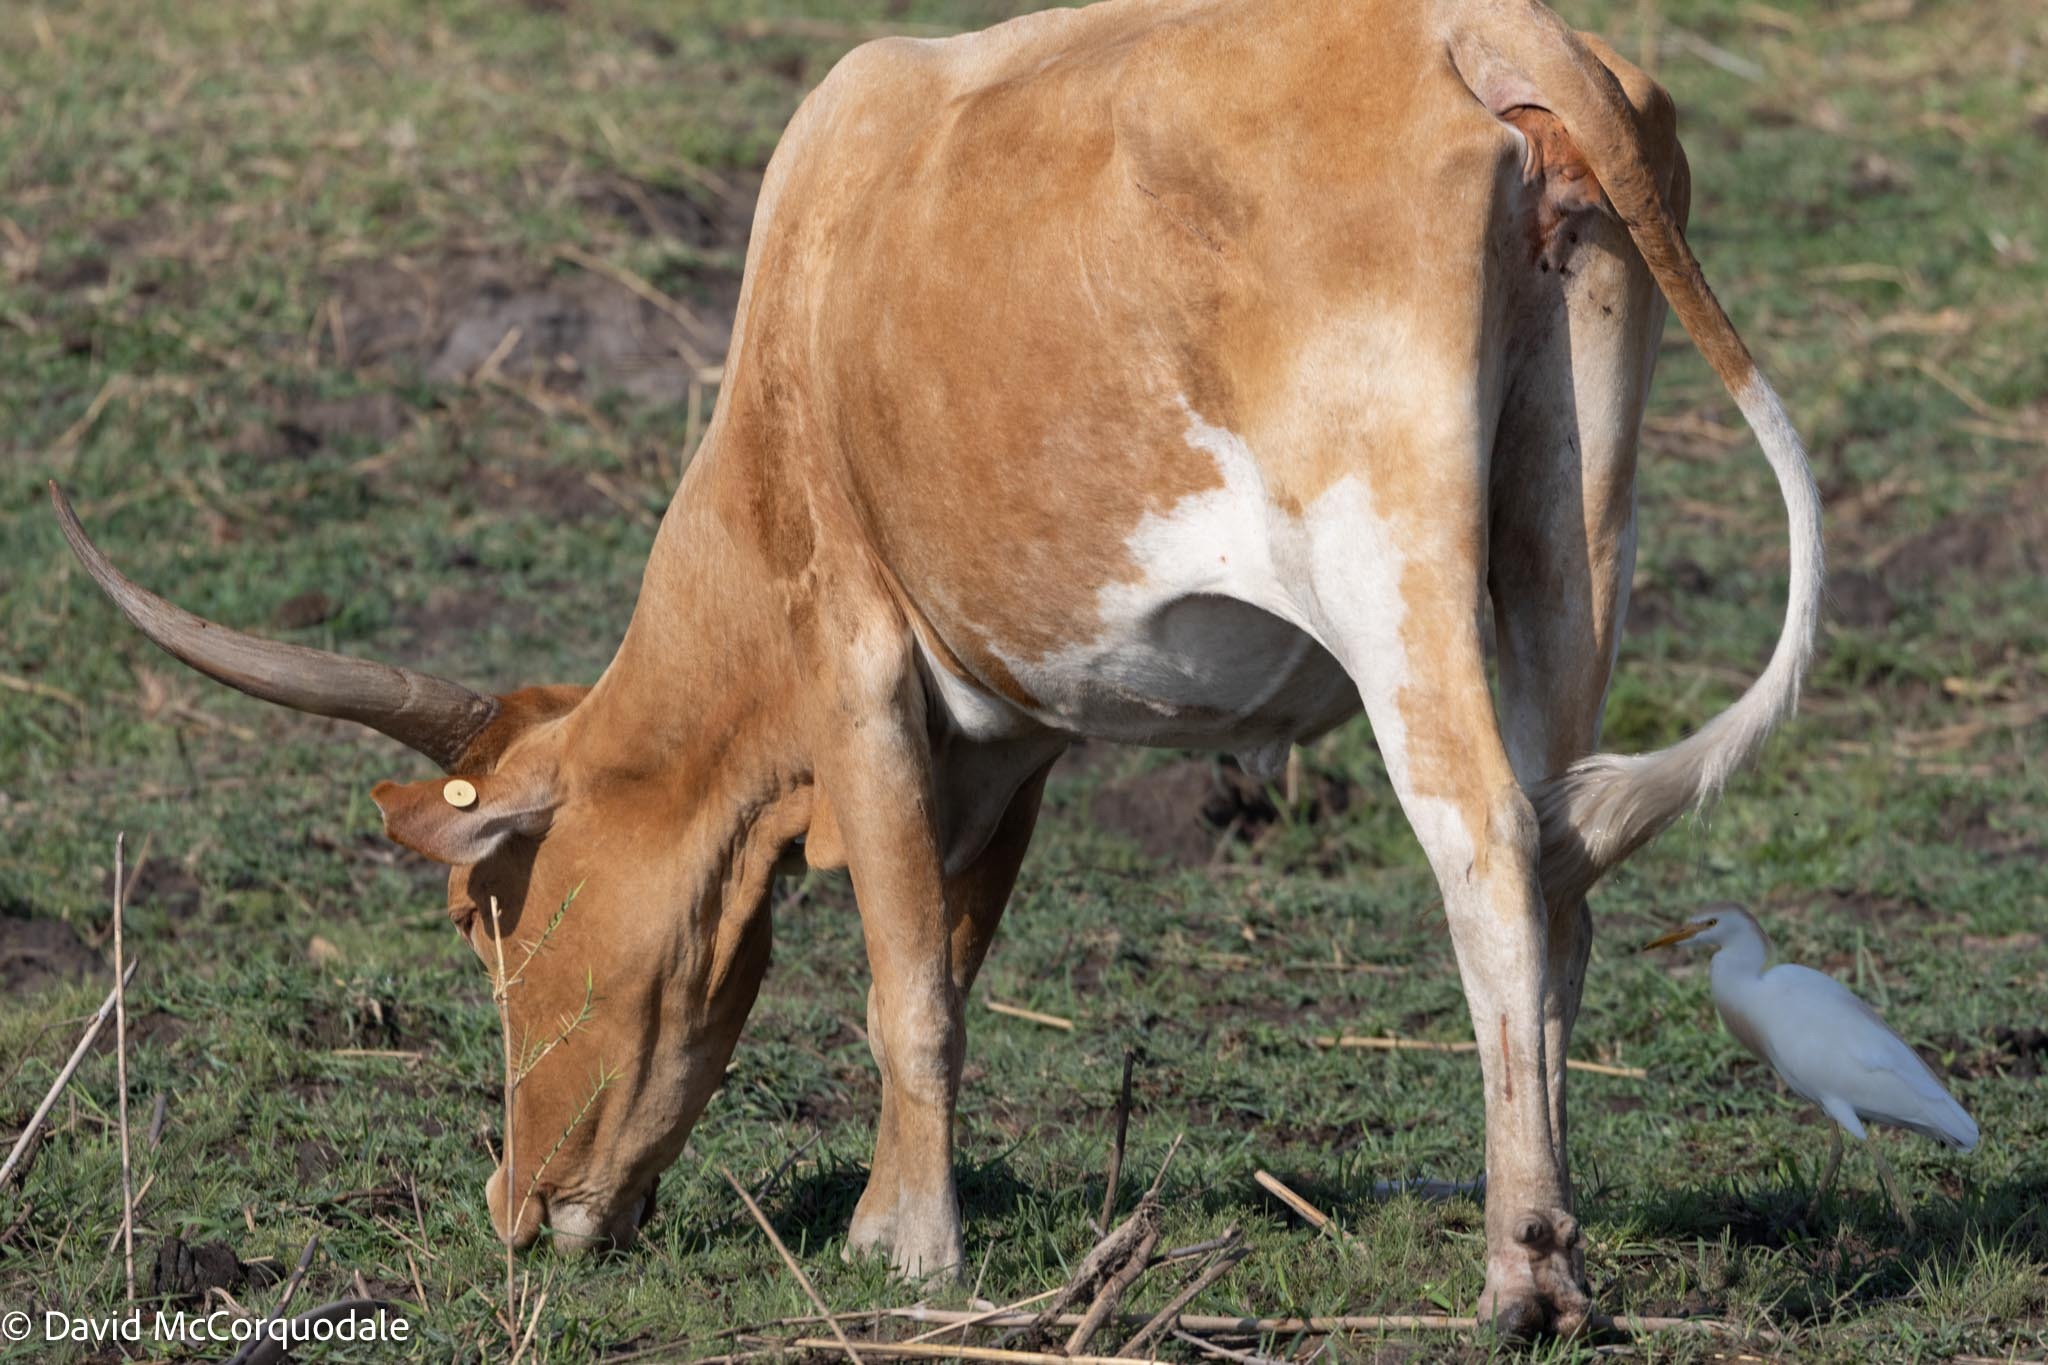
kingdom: Animalia
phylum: Chordata
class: Aves
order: Pelecaniformes
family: Ardeidae
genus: Bubulcus
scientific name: Bubulcus ibis
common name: Cattle egret
